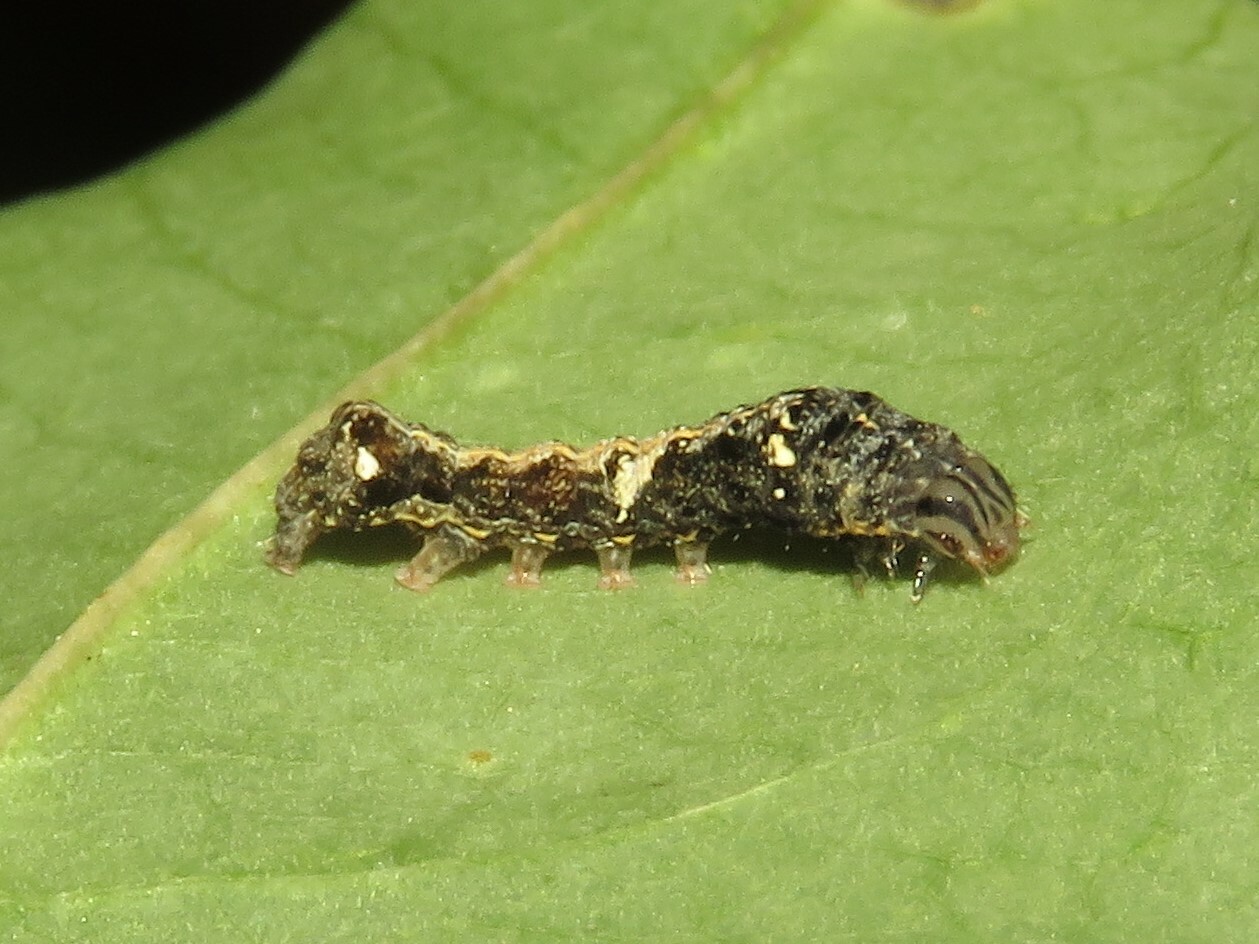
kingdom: Animalia
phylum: Arthropoda
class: Insecta
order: Lepidoptera
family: Noctuidae
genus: Elaphria
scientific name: Elaphria versicolor
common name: Fir harlequin
